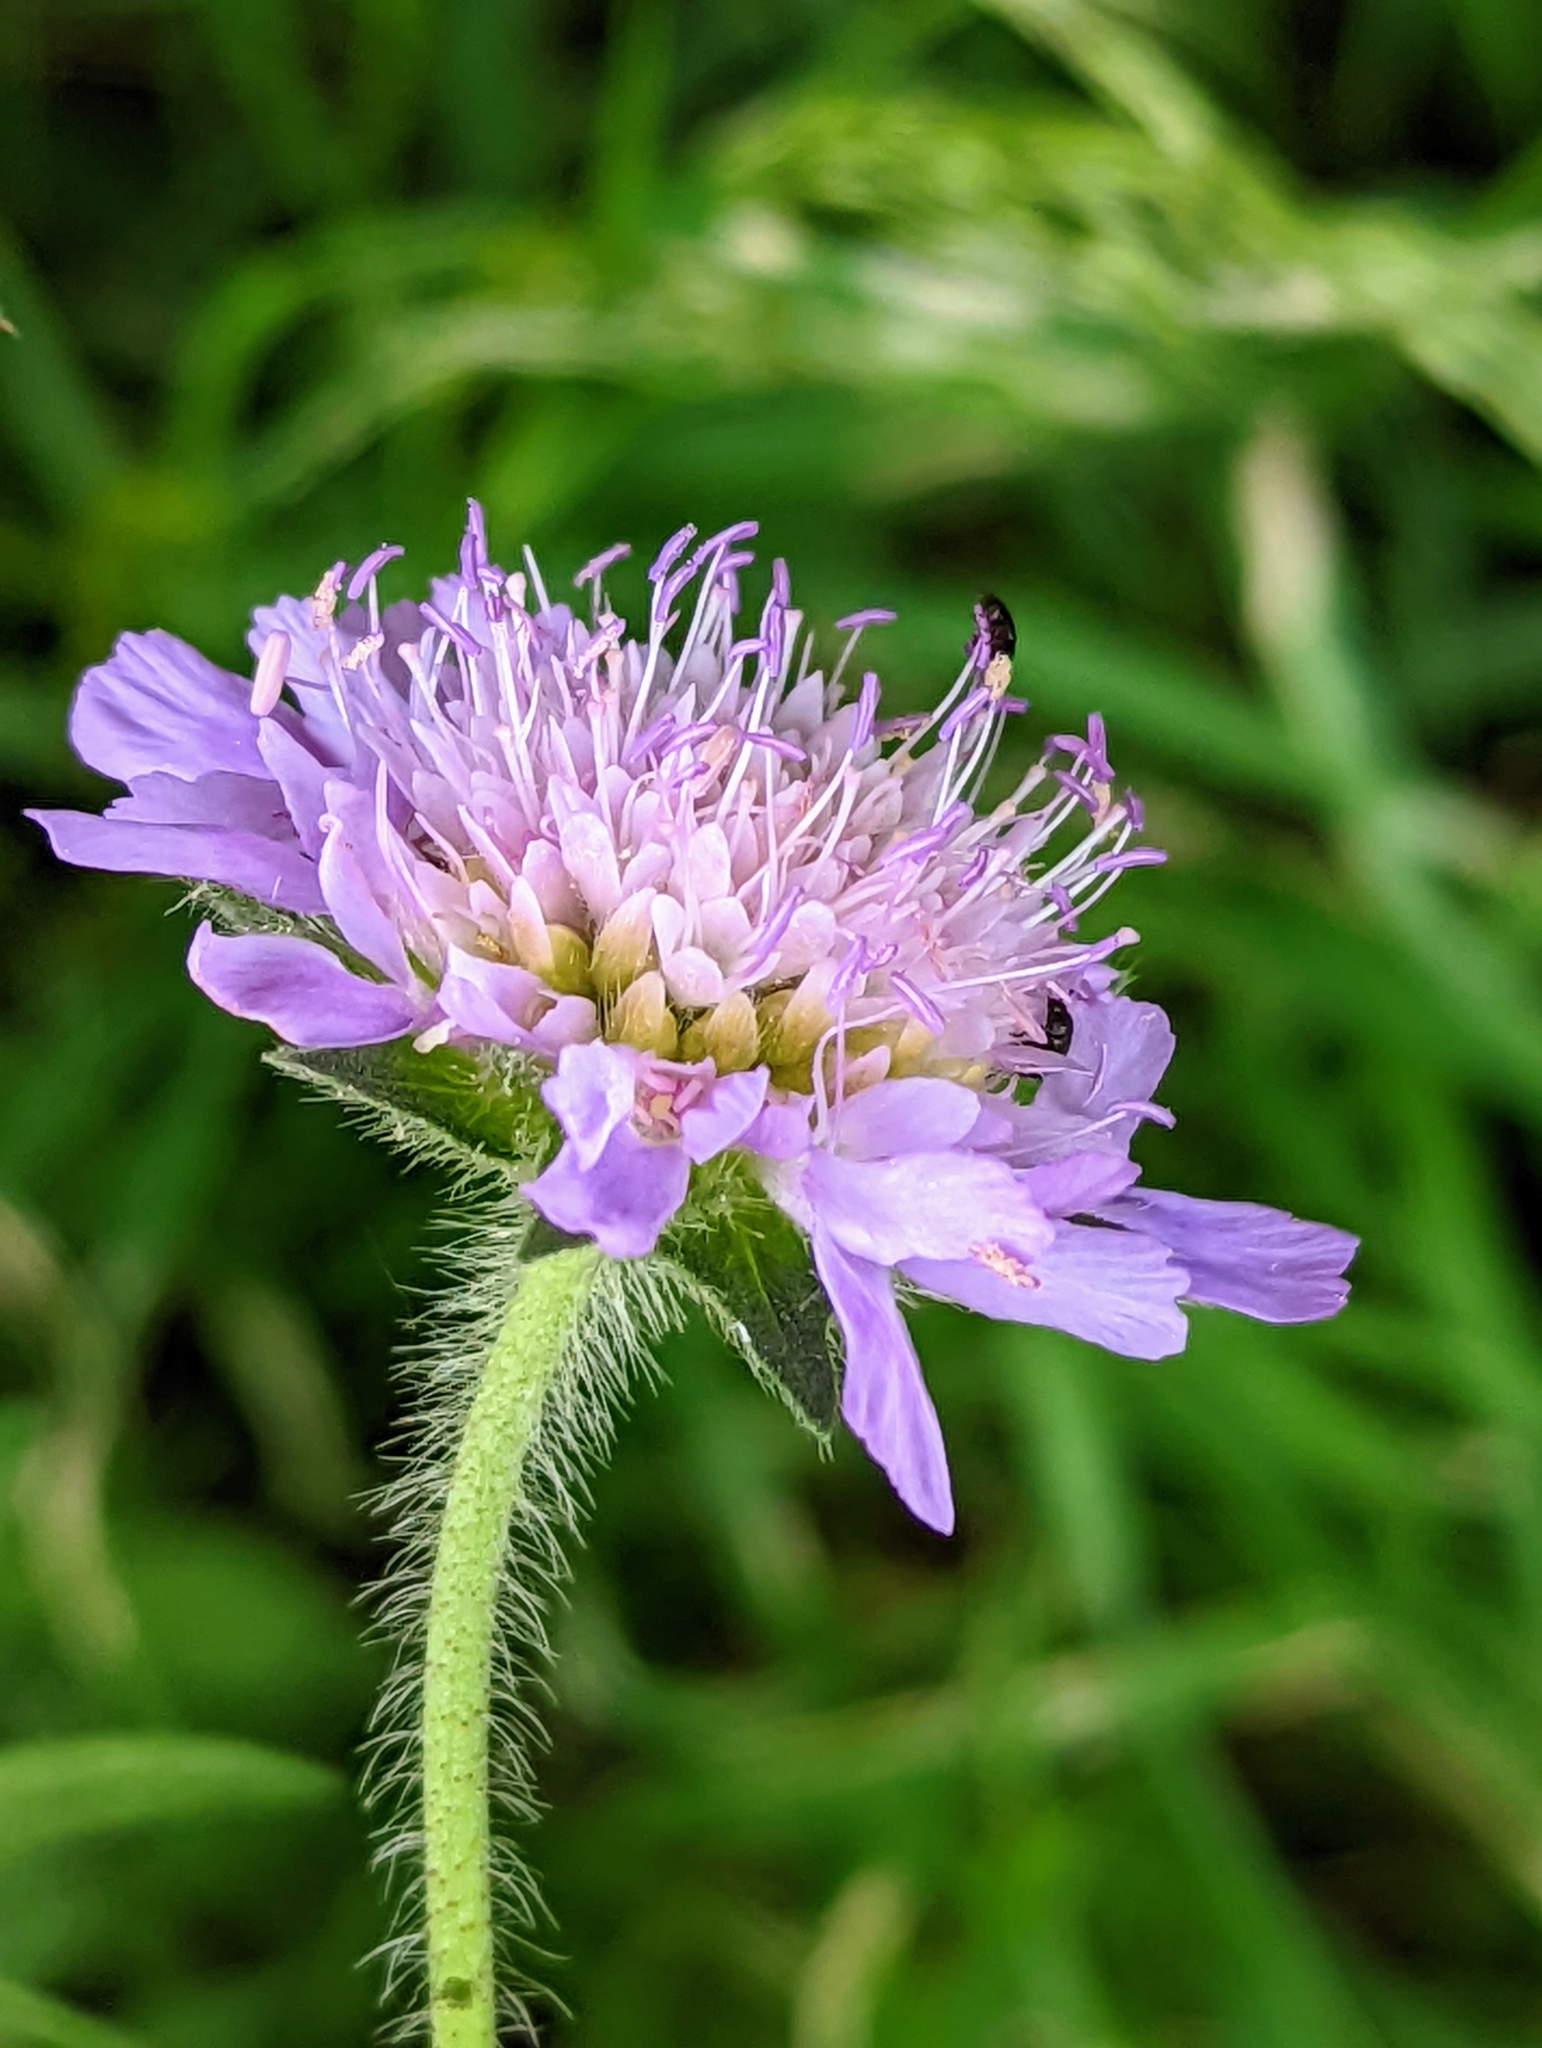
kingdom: Plantae
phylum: Tracheophyta
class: Magnoliopsida
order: Dipsacales
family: Caprifoliaceae
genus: Knautia
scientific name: Knautia arvensis
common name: Field scabiosa
